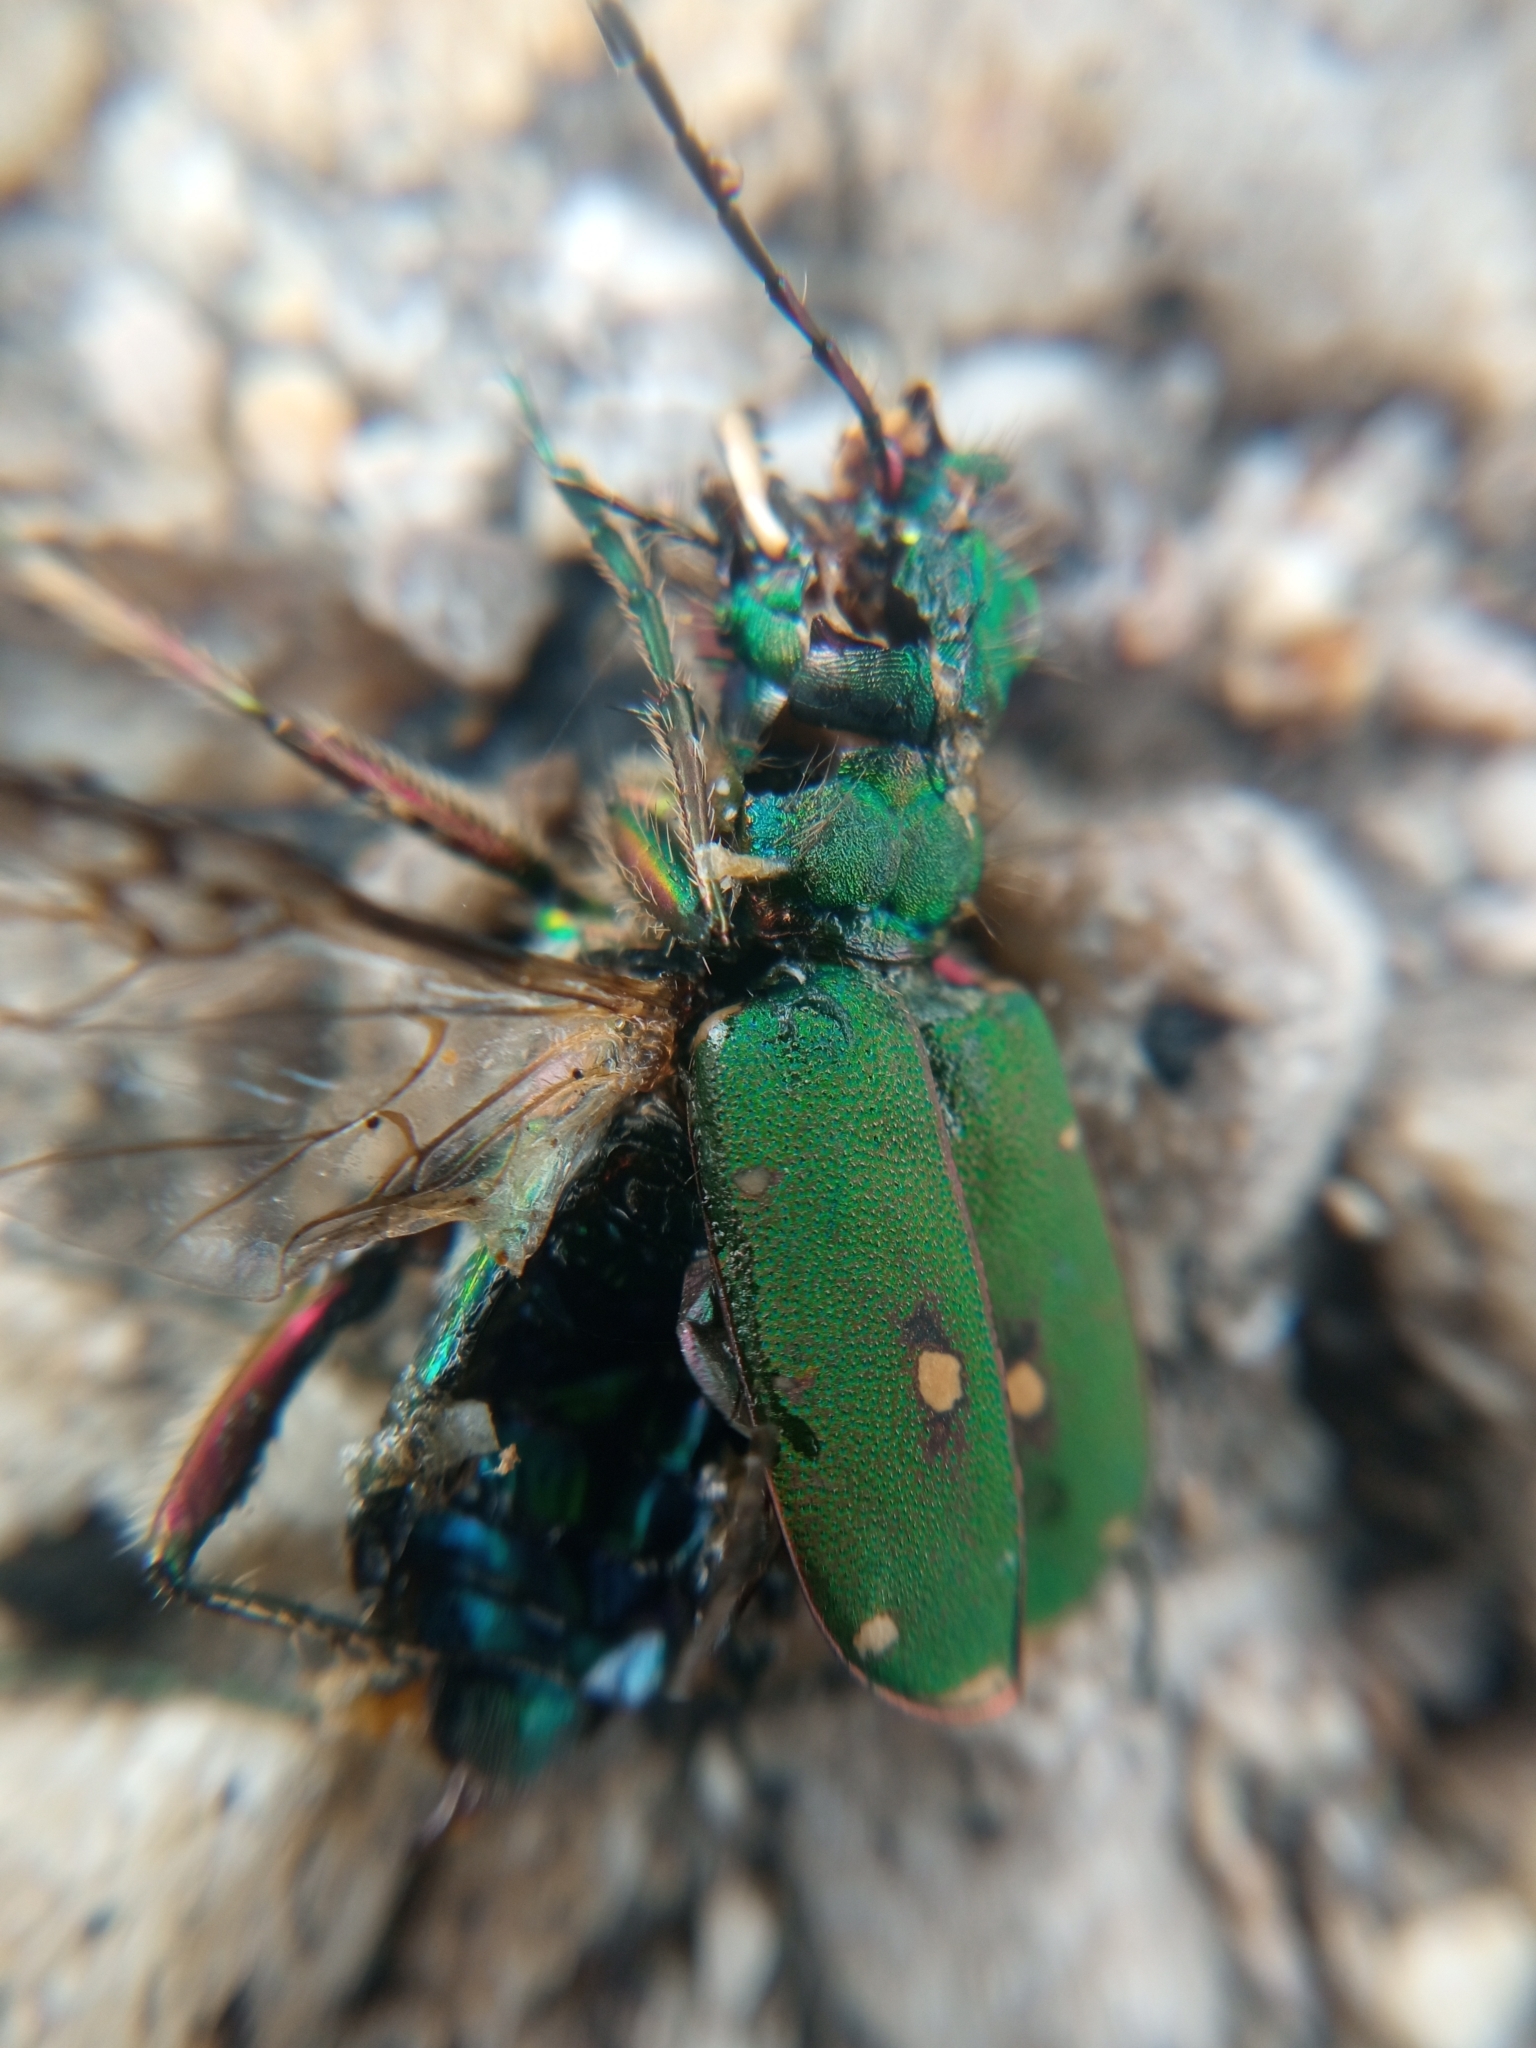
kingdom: Animalia
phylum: Arthropoda
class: Insecta
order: Coleoptera
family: Carabidae
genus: Cicindela
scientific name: Cicindela campestris
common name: Common tiger beetle
